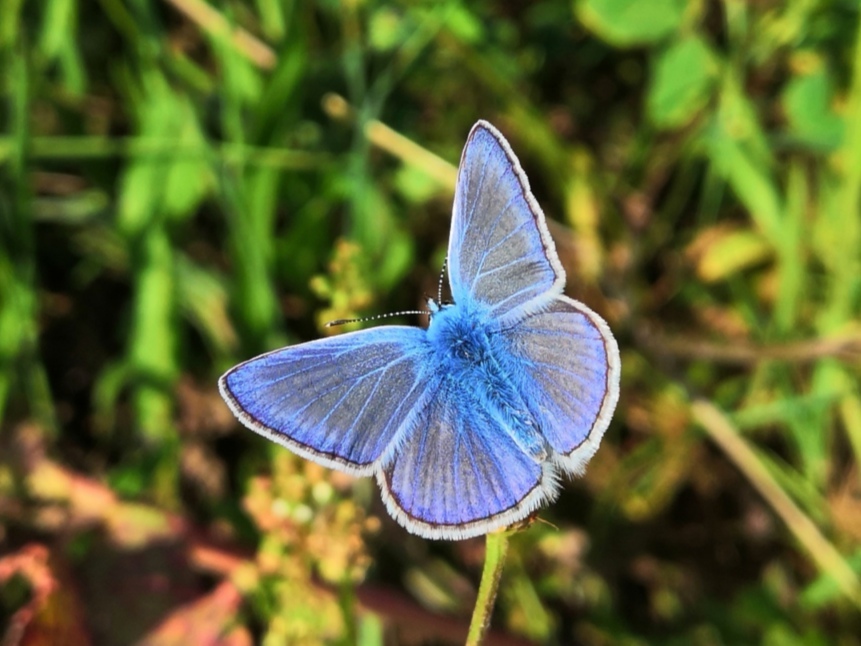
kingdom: Animalia
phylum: Arthropoda
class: Insecta
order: Lepidoptera
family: Lycaenidae
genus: Polyommatus
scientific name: Polyommatus icarus
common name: Common blue
